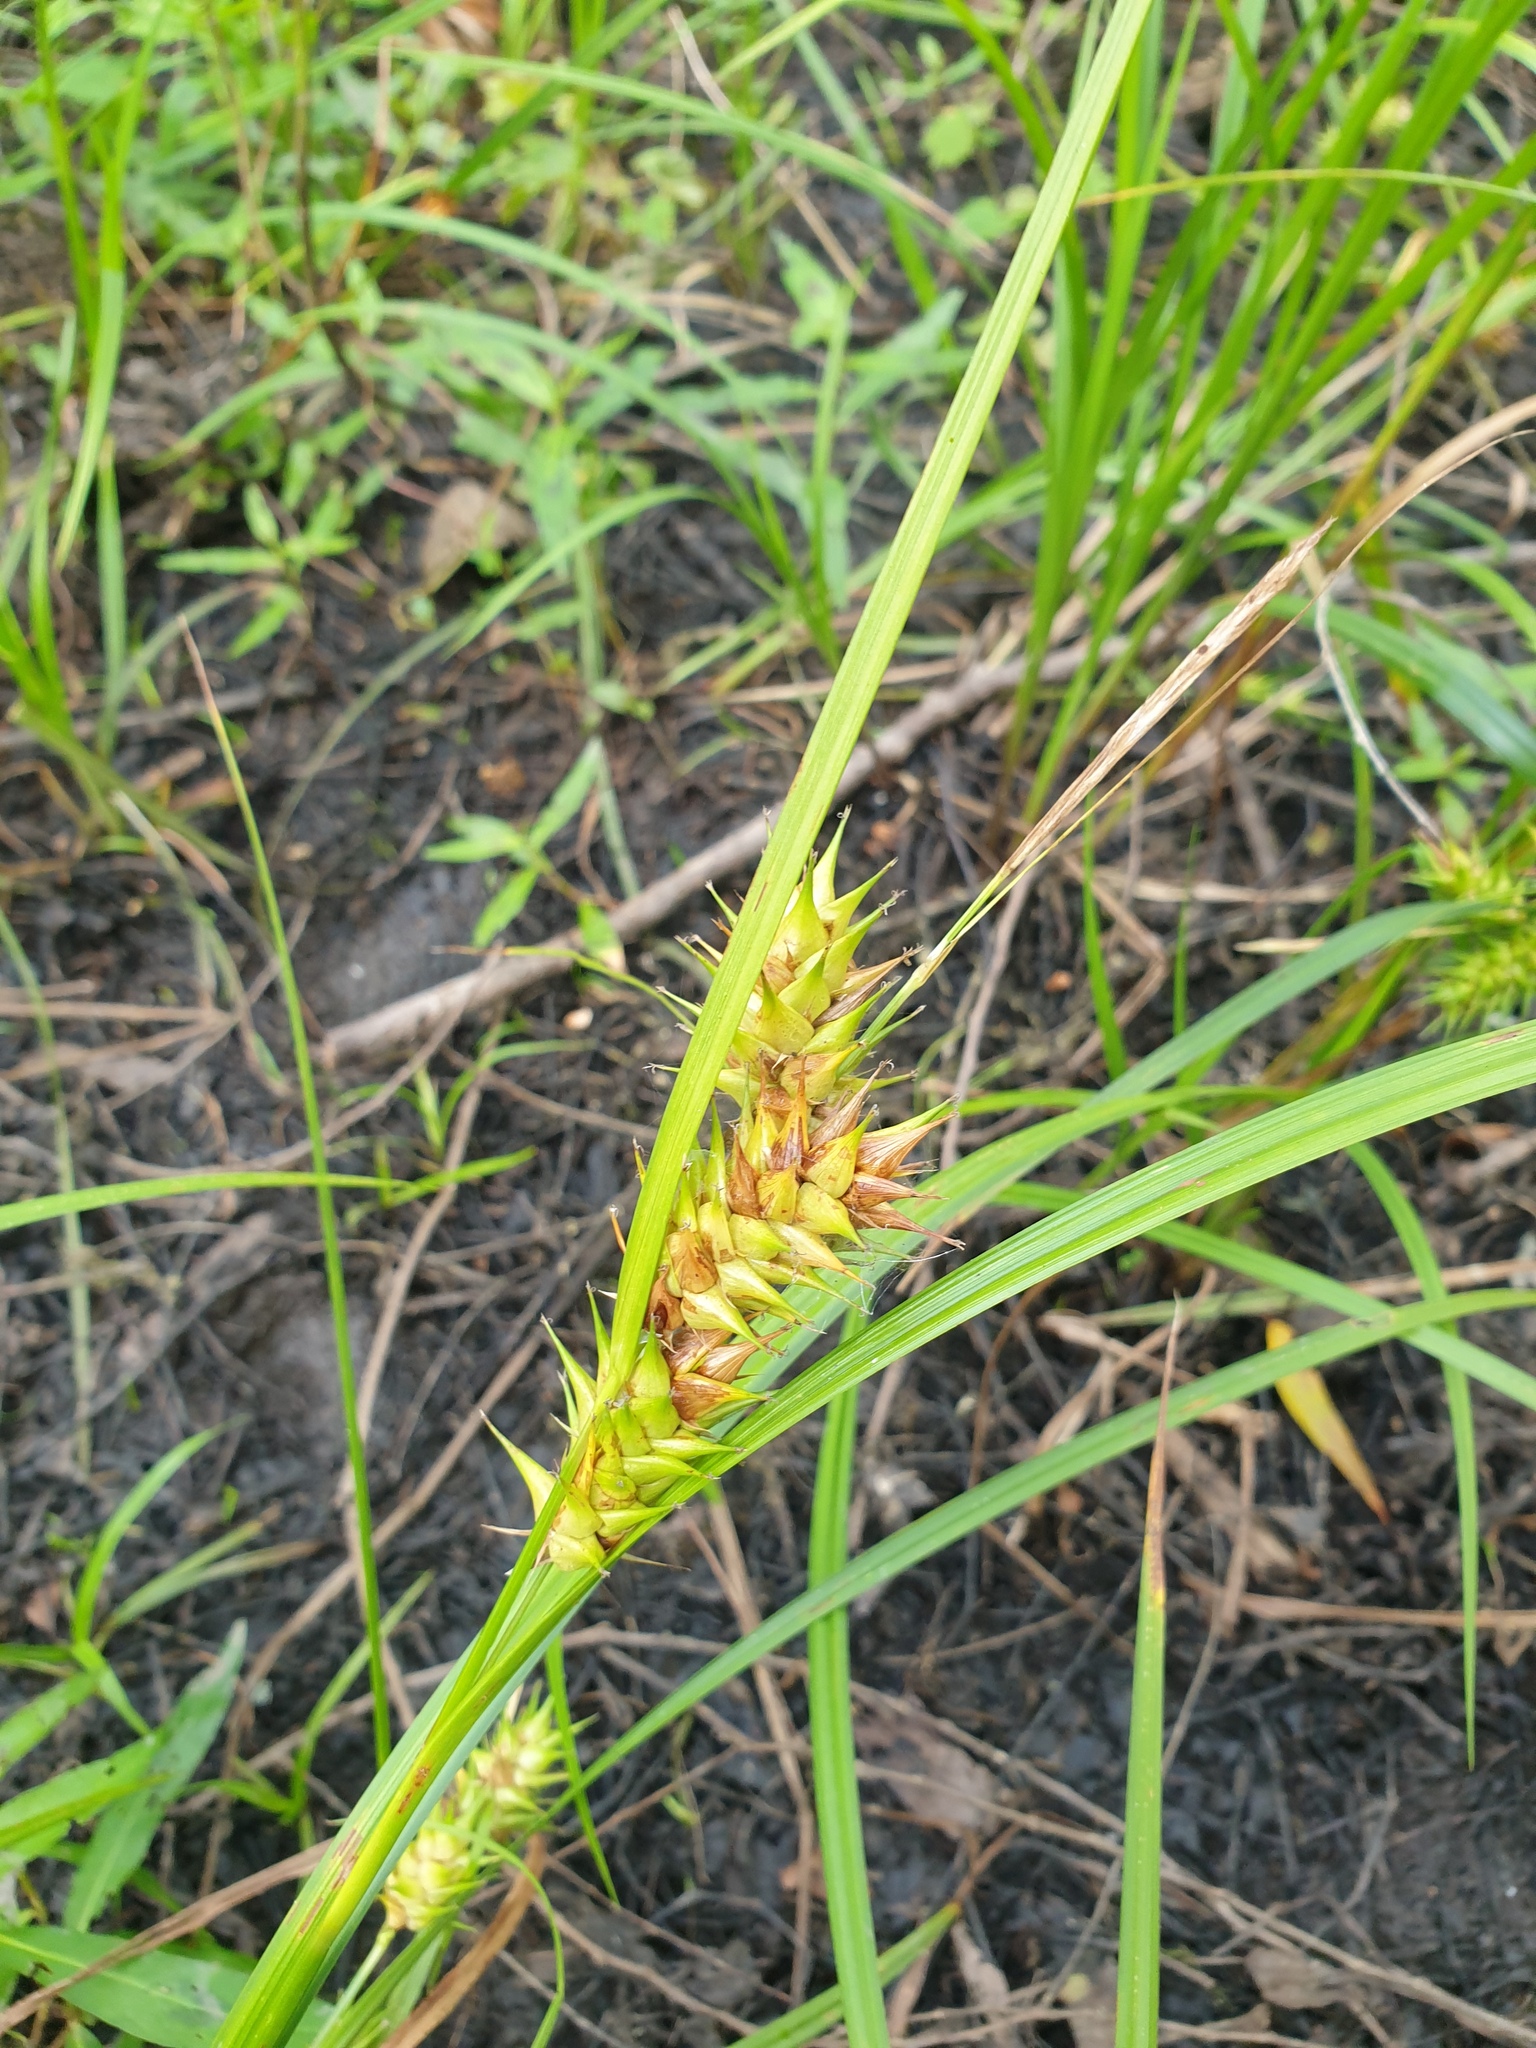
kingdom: Plantae
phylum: Tracheophyta
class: Liliopsida
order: Poales
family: Cyperaceae
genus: Carex
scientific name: Carex lupulina
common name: Hop sedge
